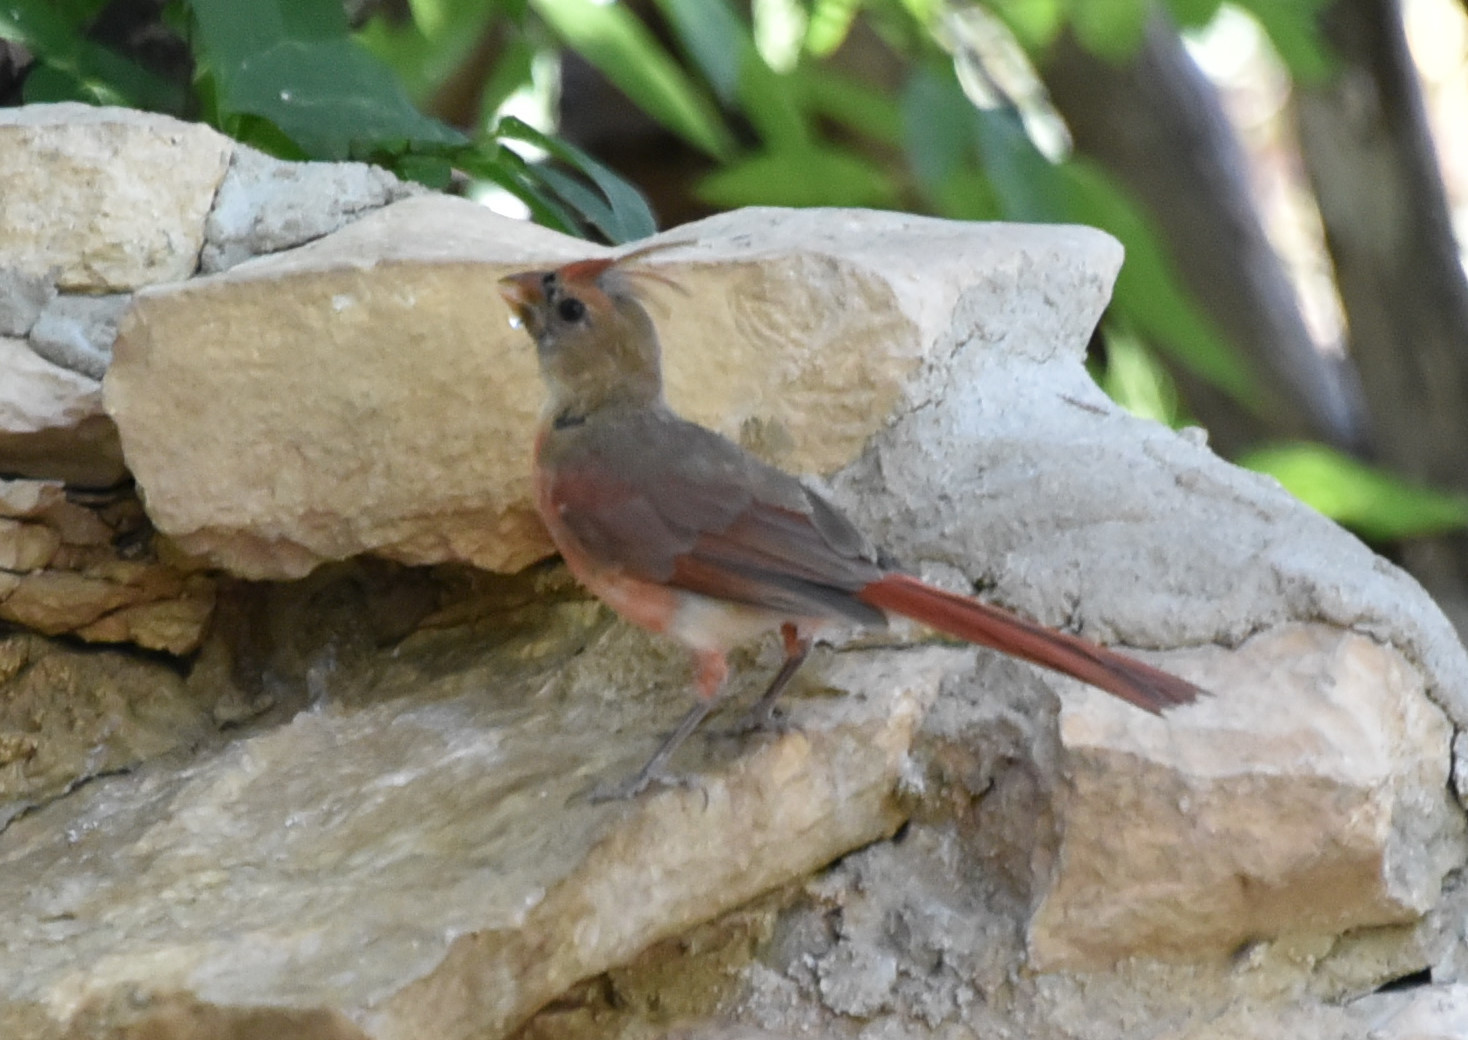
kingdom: Animalia
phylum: Chordata
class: Aves
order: Passeriformes
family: Cardinalidae
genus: Cardinalis
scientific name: Cardinalis cardinalis
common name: Northern cardinal
